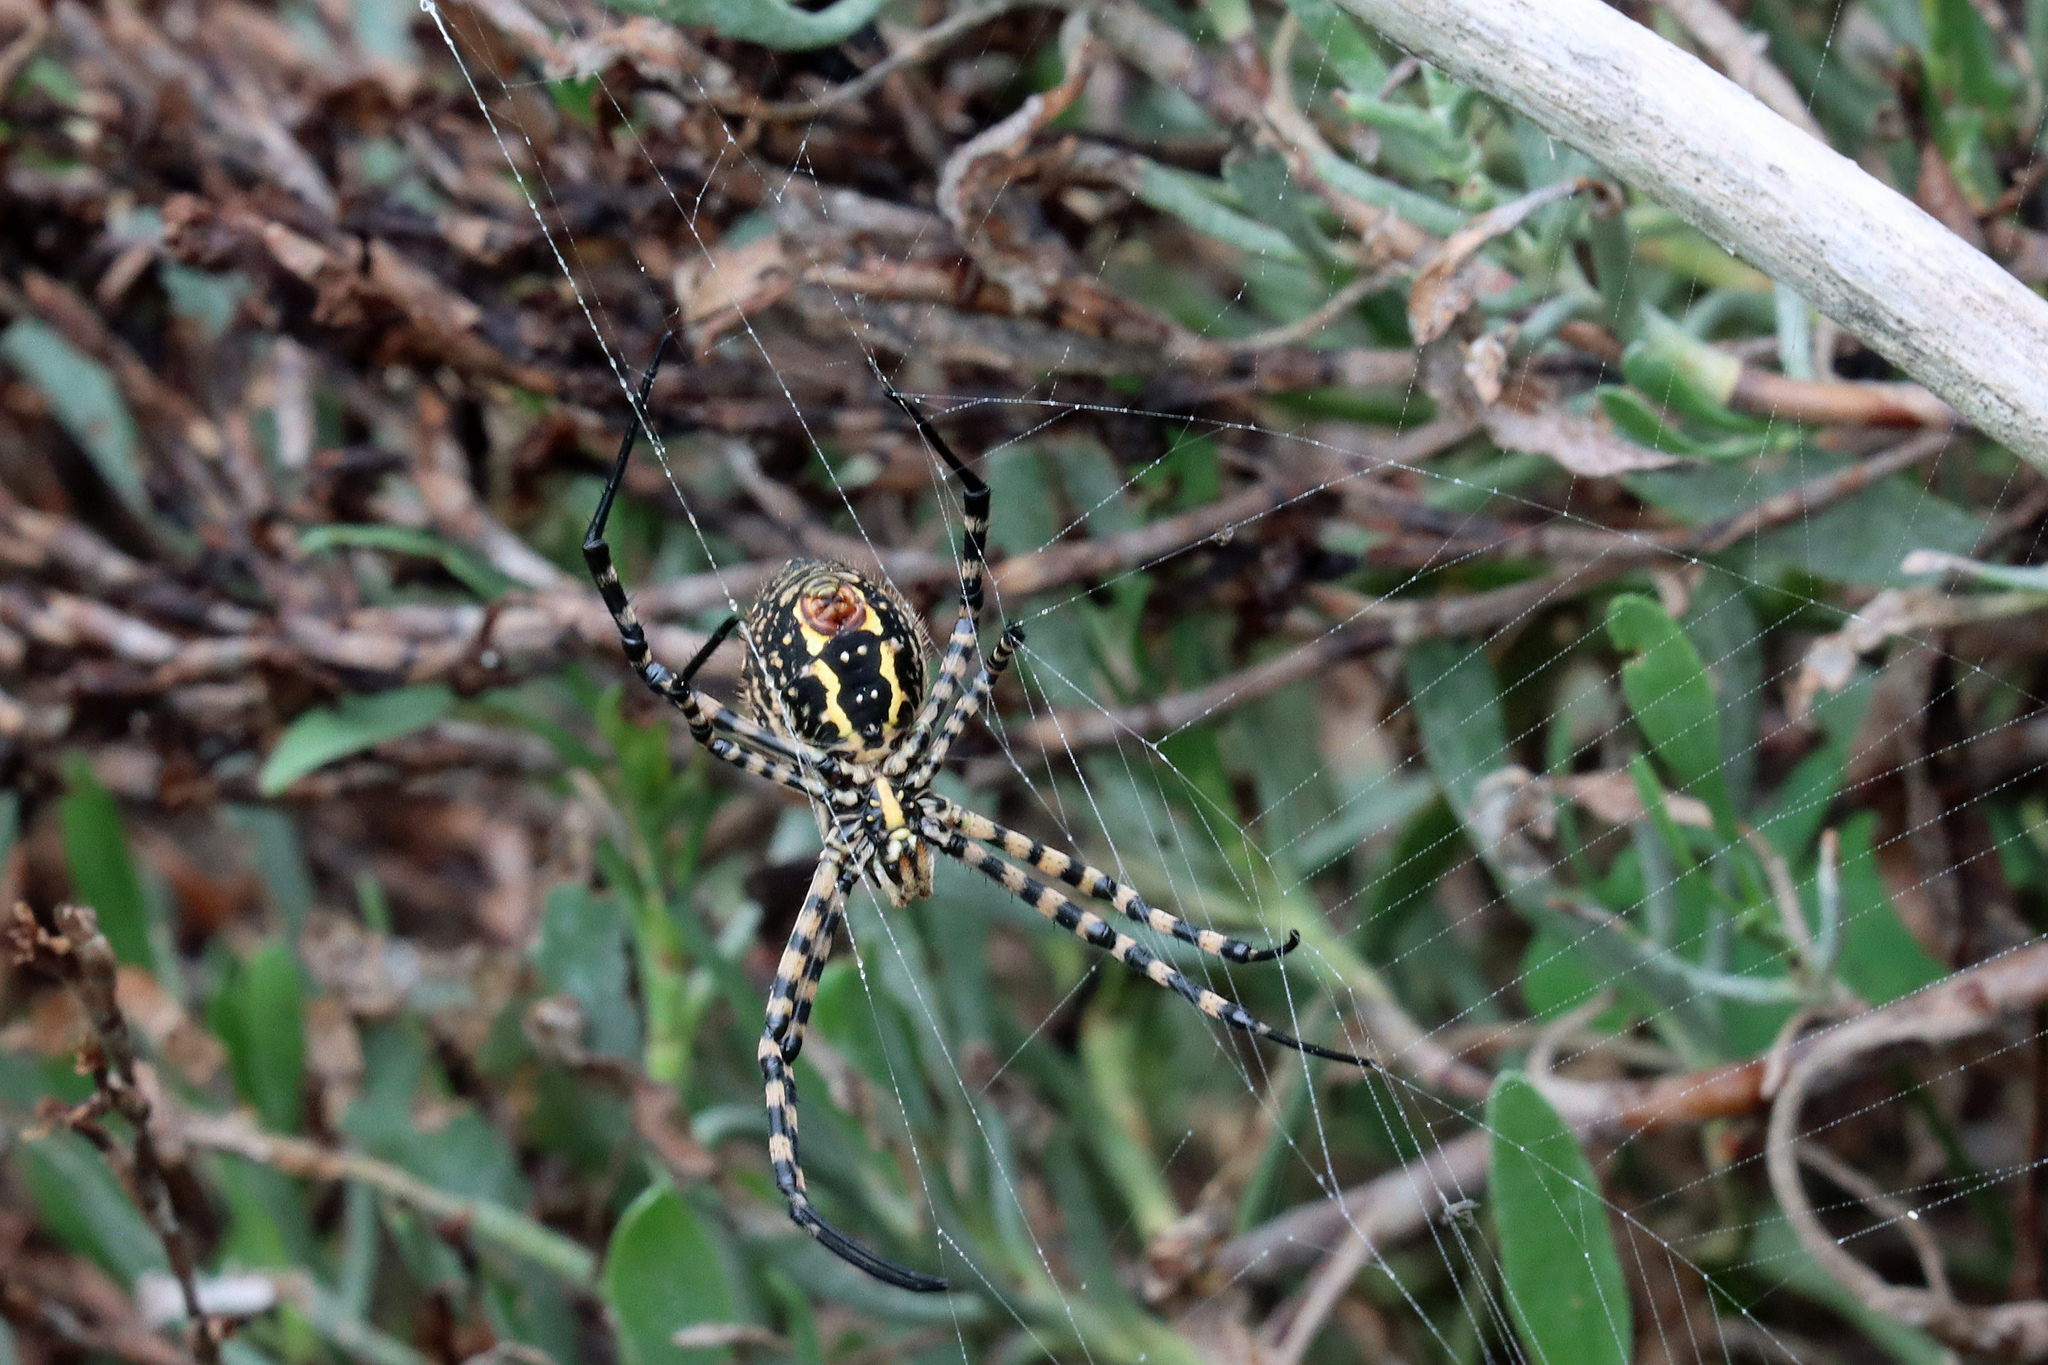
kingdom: Animalia
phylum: Arthropoda
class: Arachnida
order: Araneae
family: Araneidae
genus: Argiope
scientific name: Argiope bruennichi
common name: Wasp spider
